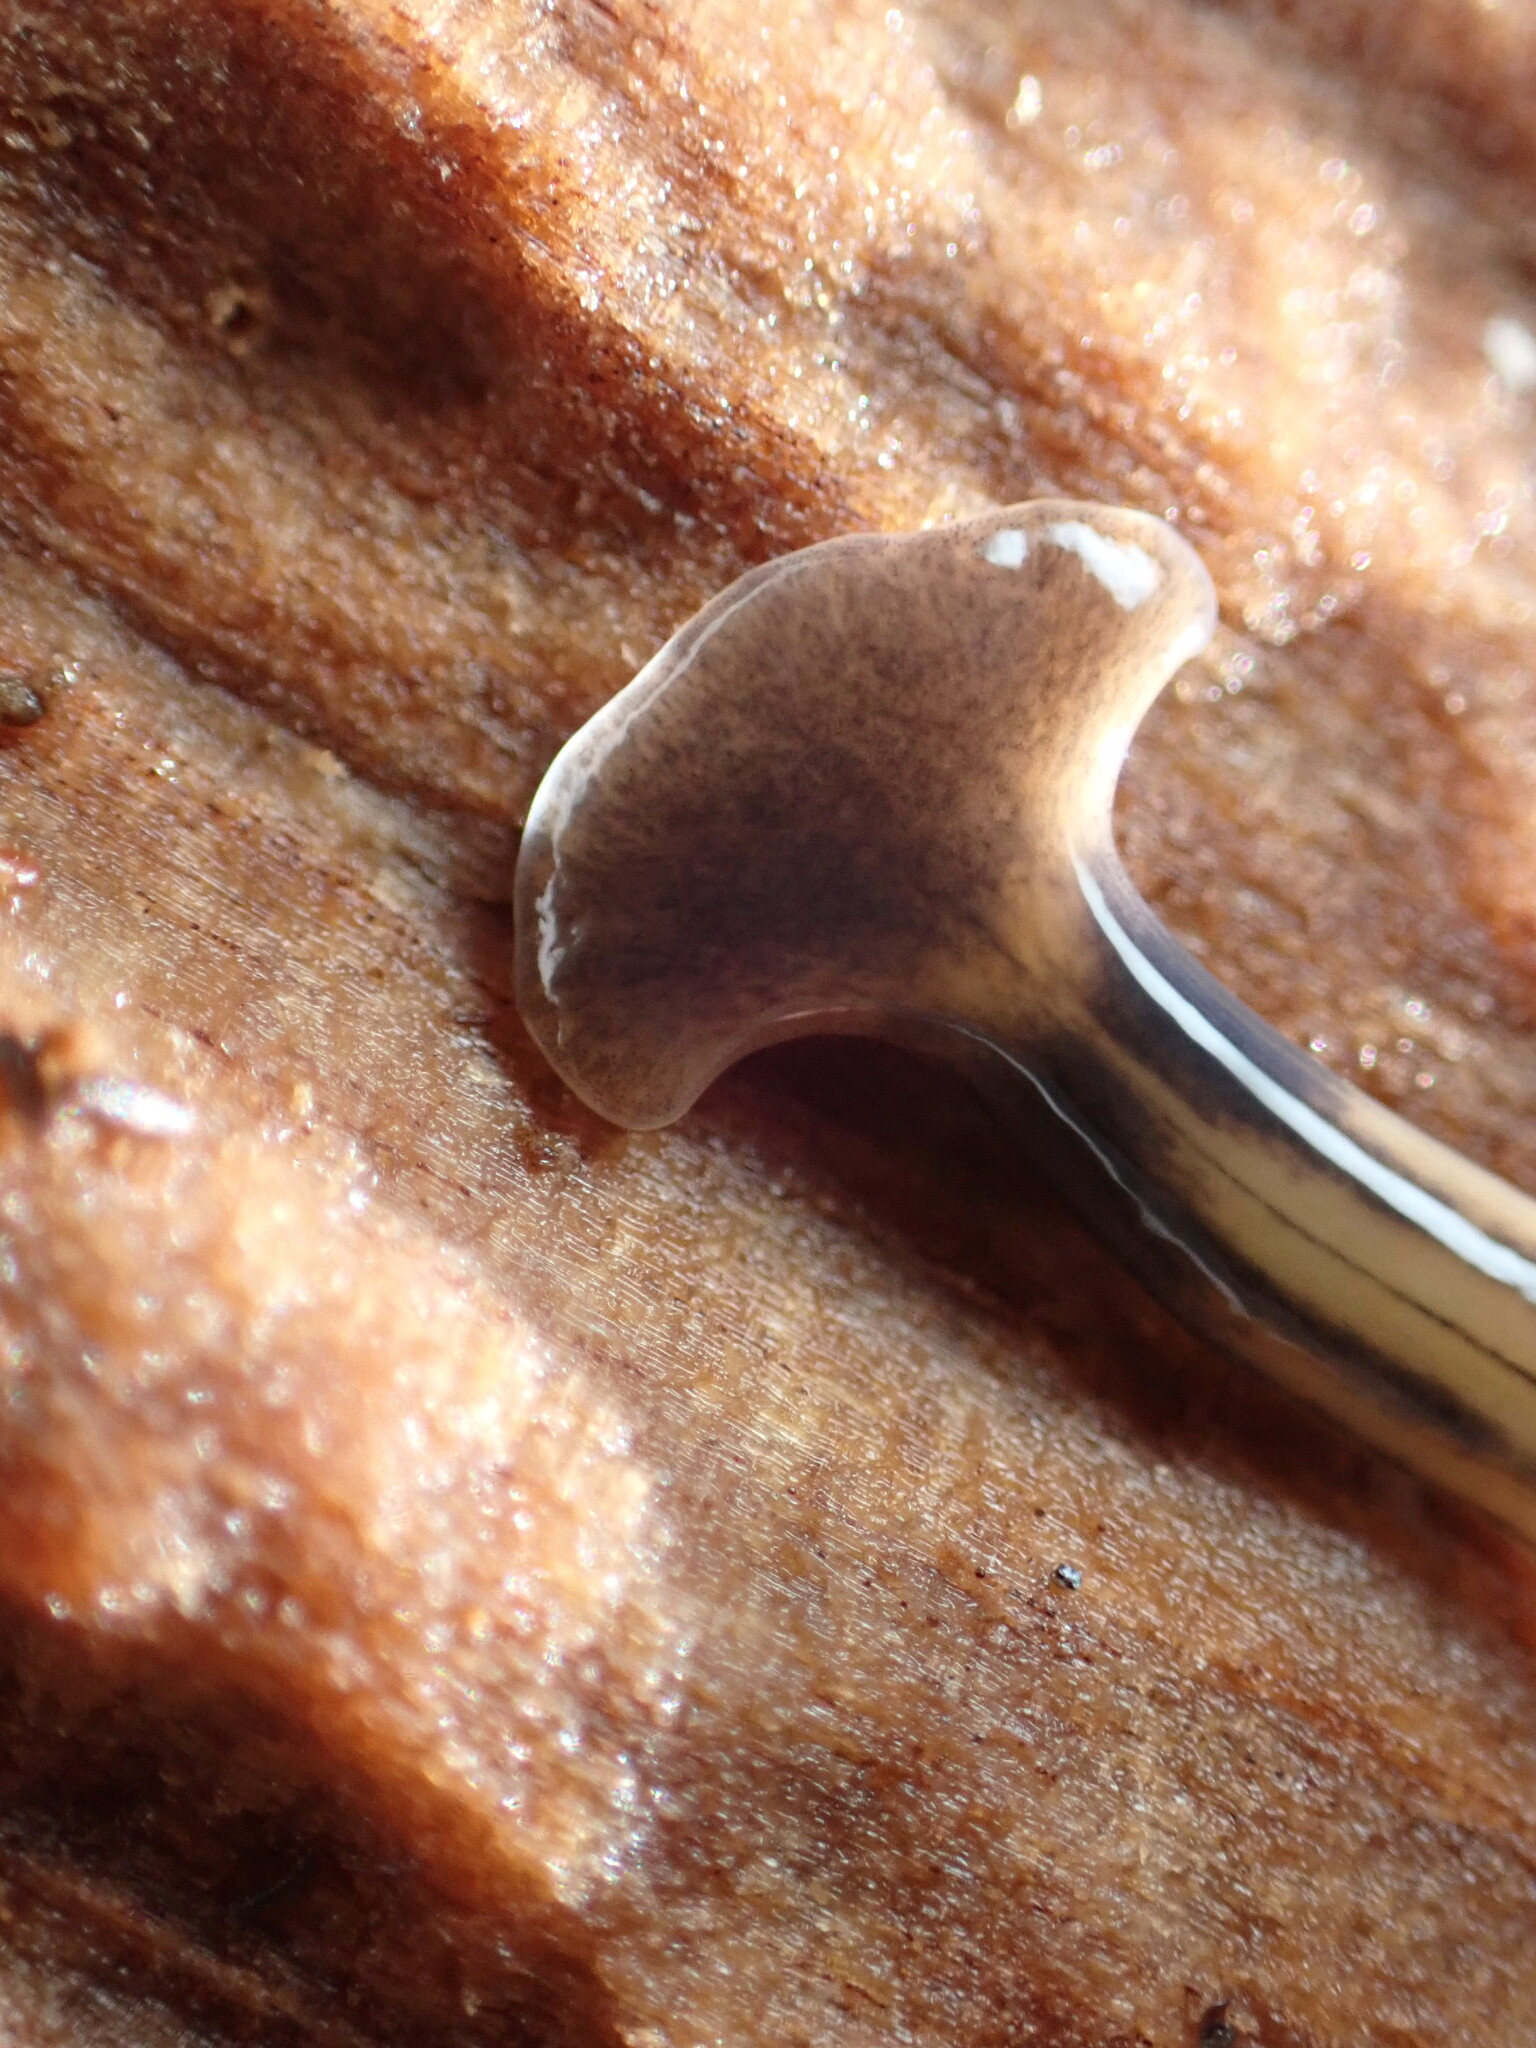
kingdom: Animalia
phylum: Platyhelminthes
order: Tricladida
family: Geoplanidae
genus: Bipalium
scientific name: Bipalium kewense
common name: Hammerhead flatworm
